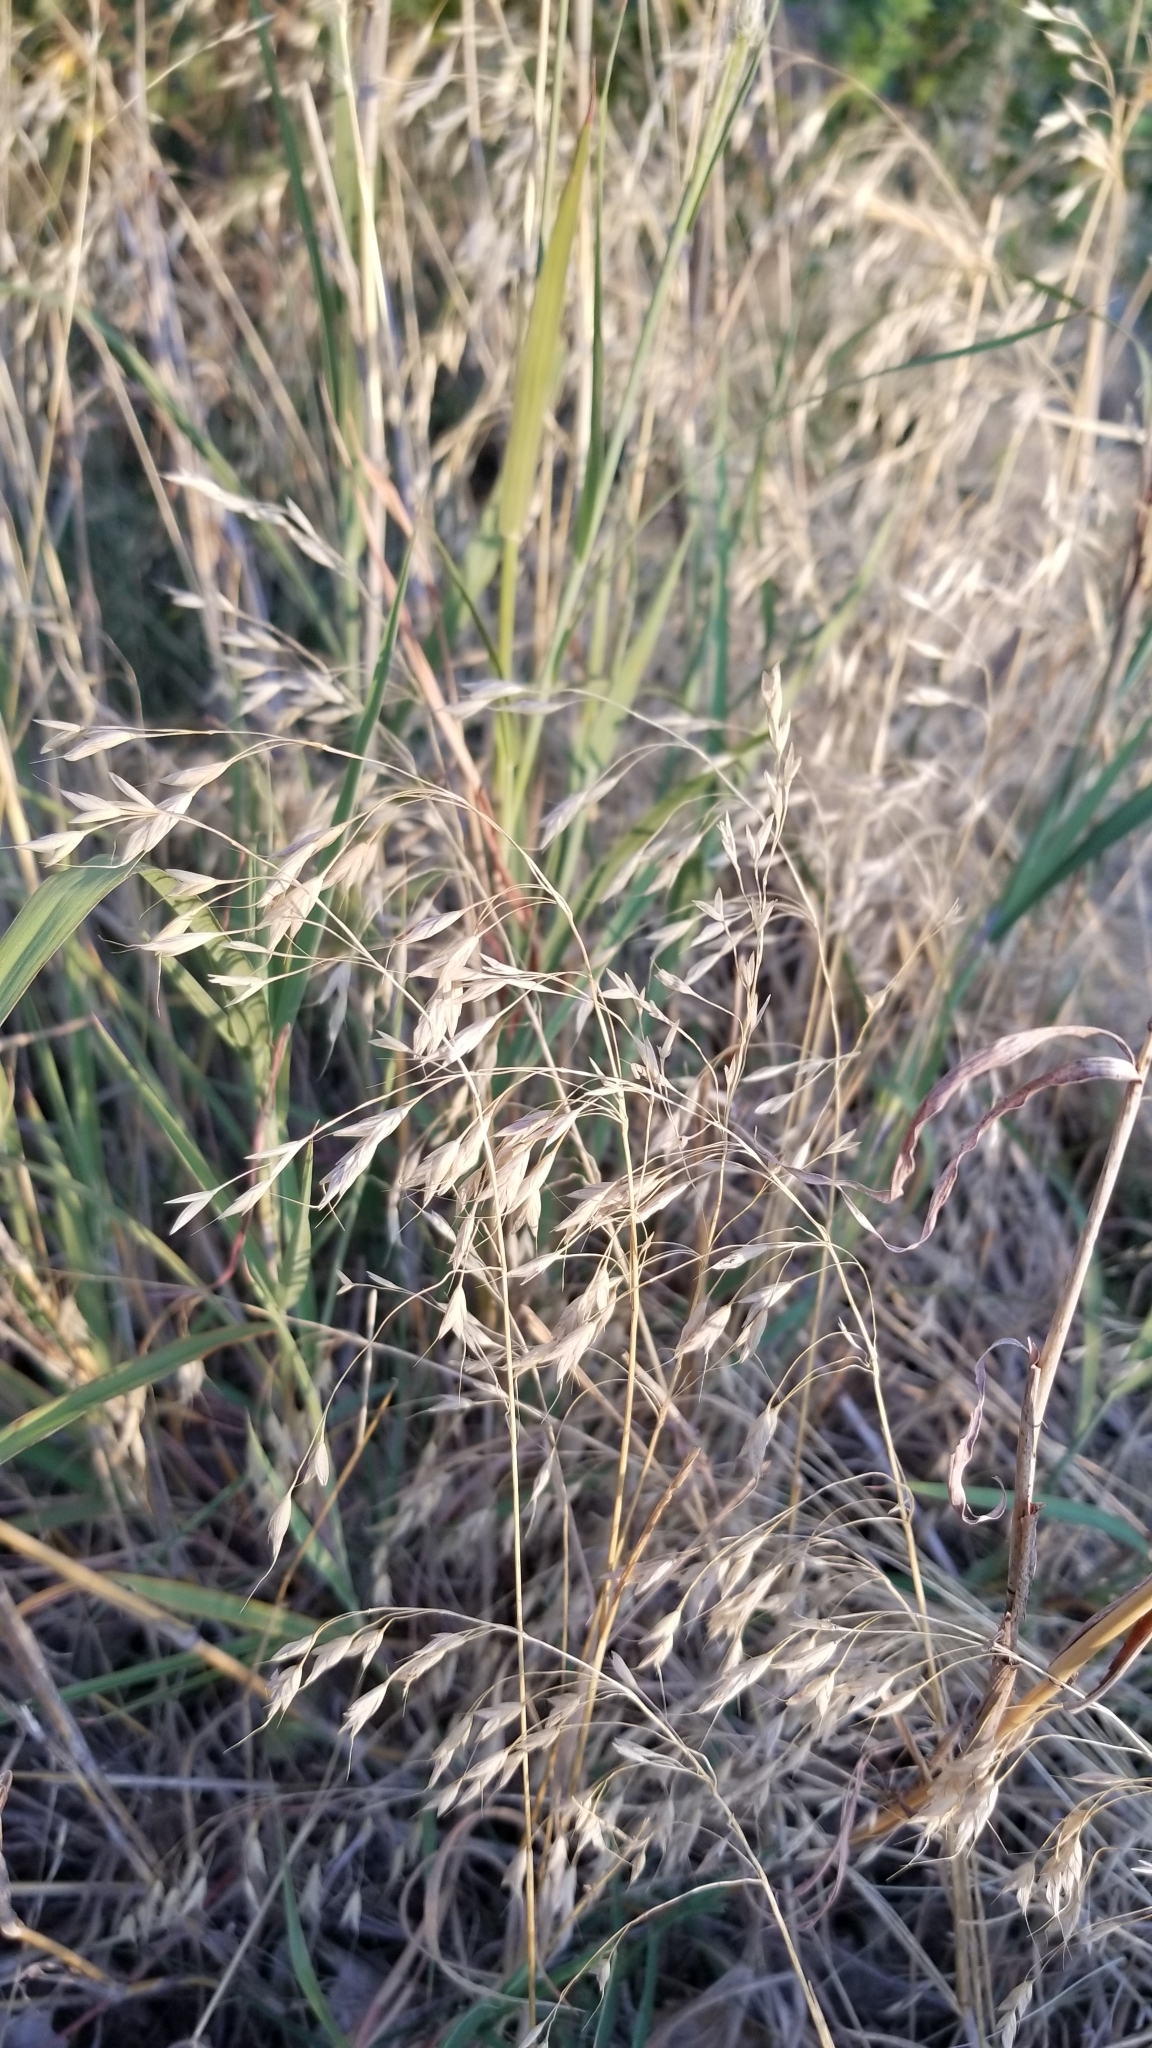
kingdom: Plantae
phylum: Tracheophyta
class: Liliopsida
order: Poales
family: Poaceae
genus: Bromus
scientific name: Bromus japonicus
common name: Japanese brome
